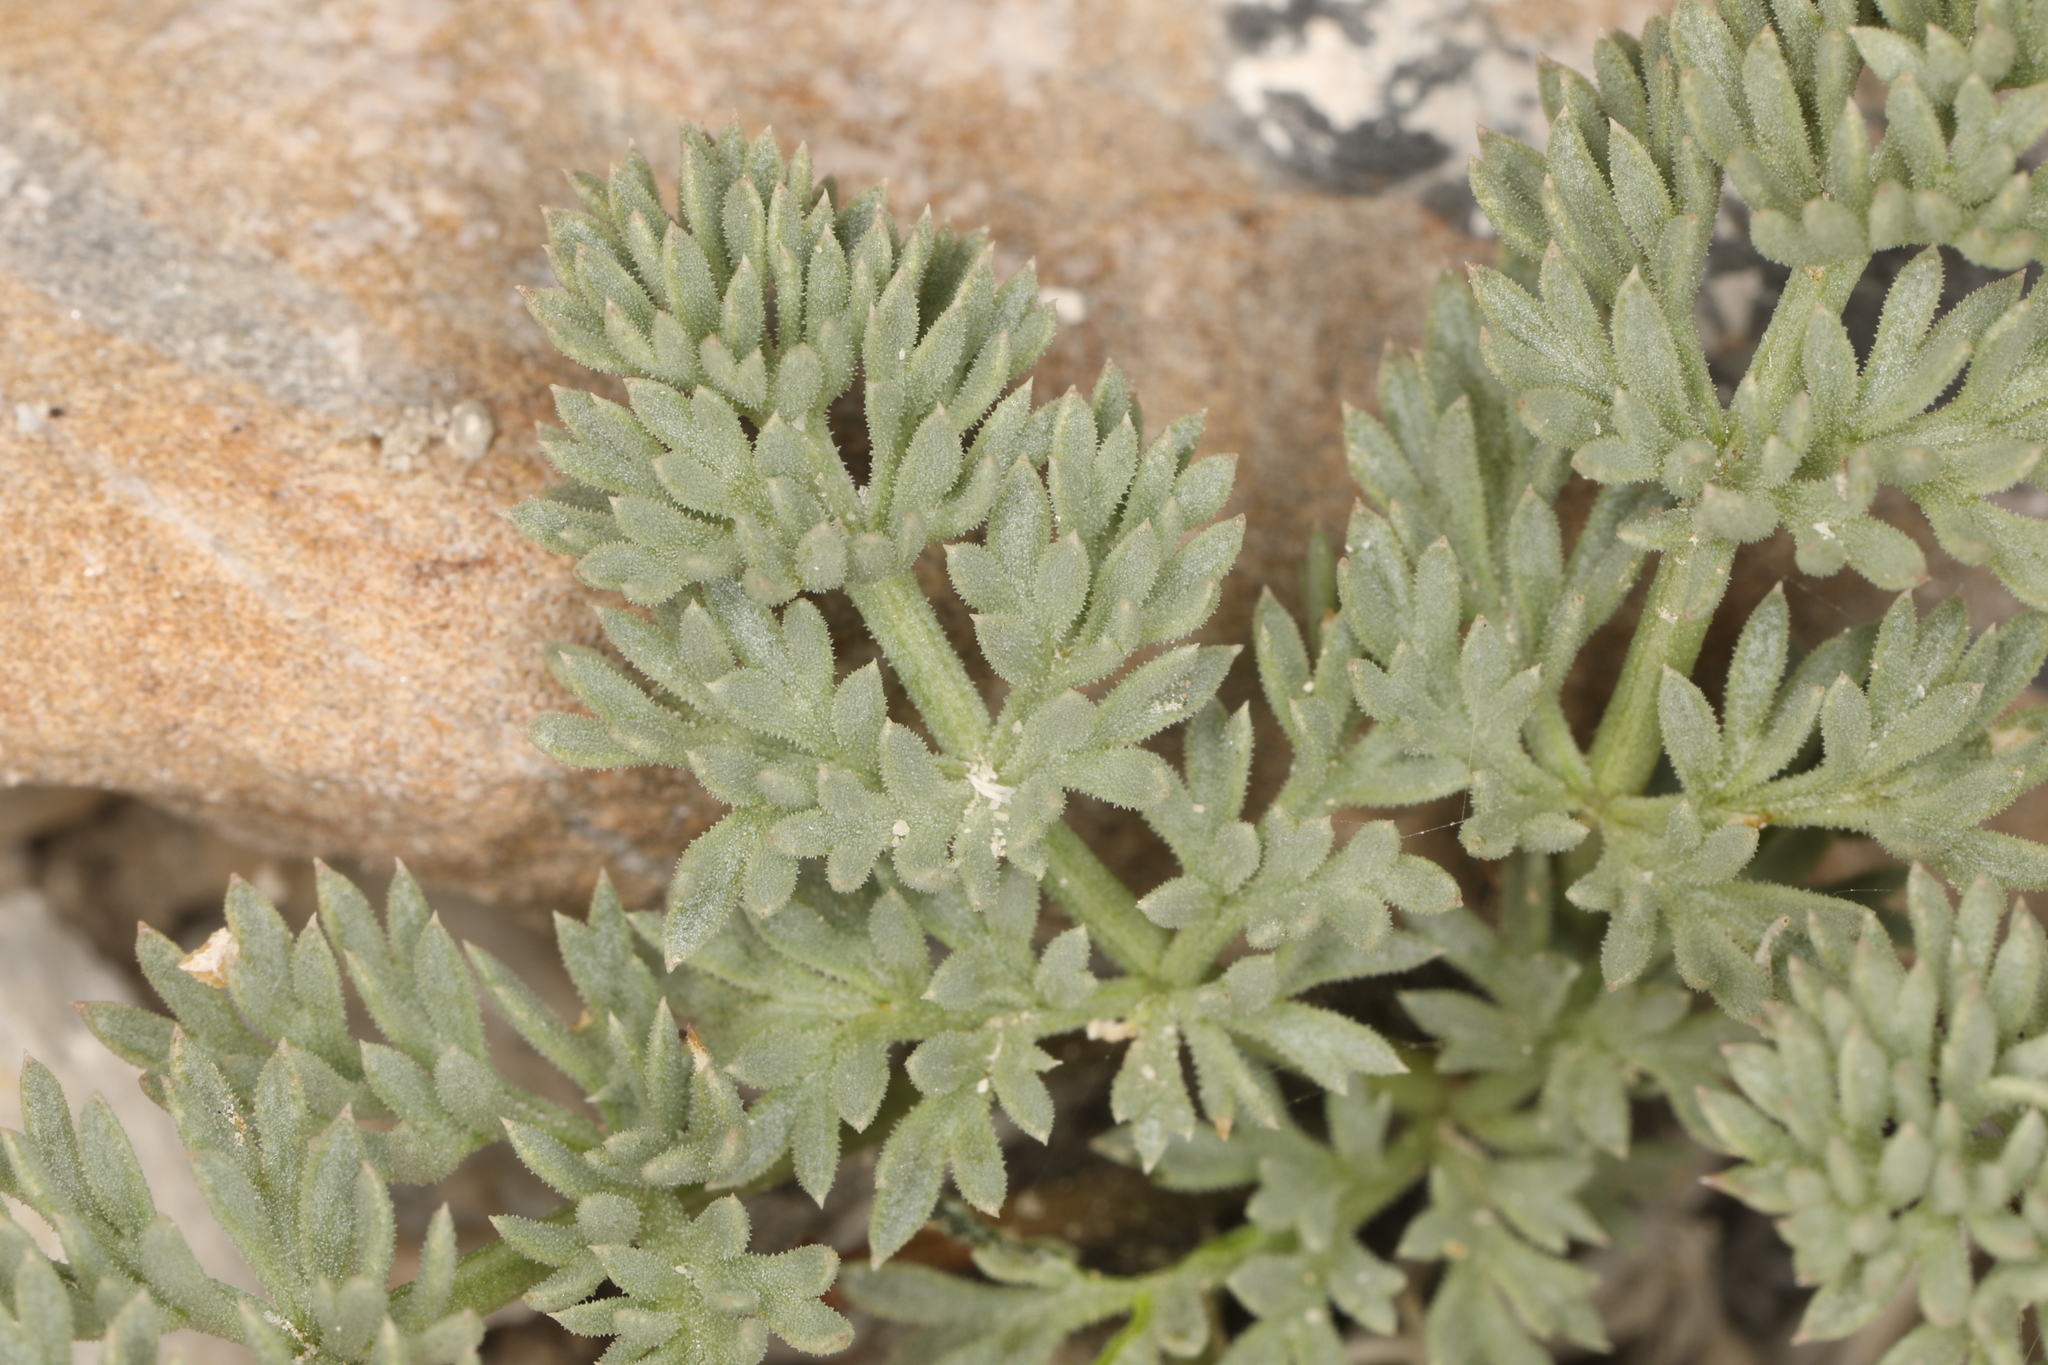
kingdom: Plantae
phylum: Tracheophyta
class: Magnoliopsida
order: Apiales
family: Apiaceae
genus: Aulospermum
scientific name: Aulospermum aboriginum
